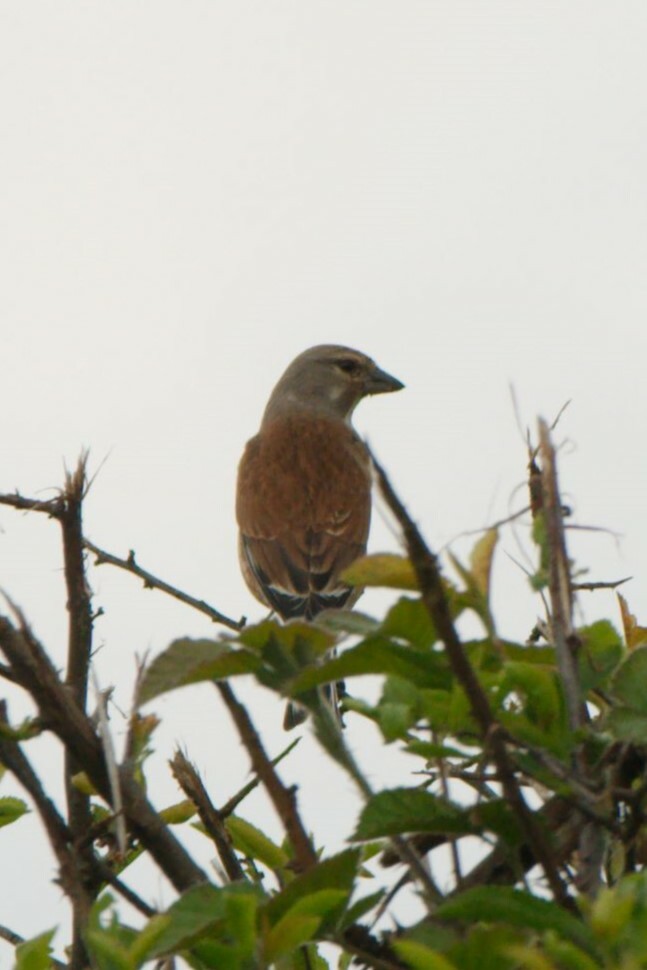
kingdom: Animalia
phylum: Chordata
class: Aves
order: Passeriformes
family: Fringillidae
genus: Linaria
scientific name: Linaria cannabina
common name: Common linnet
